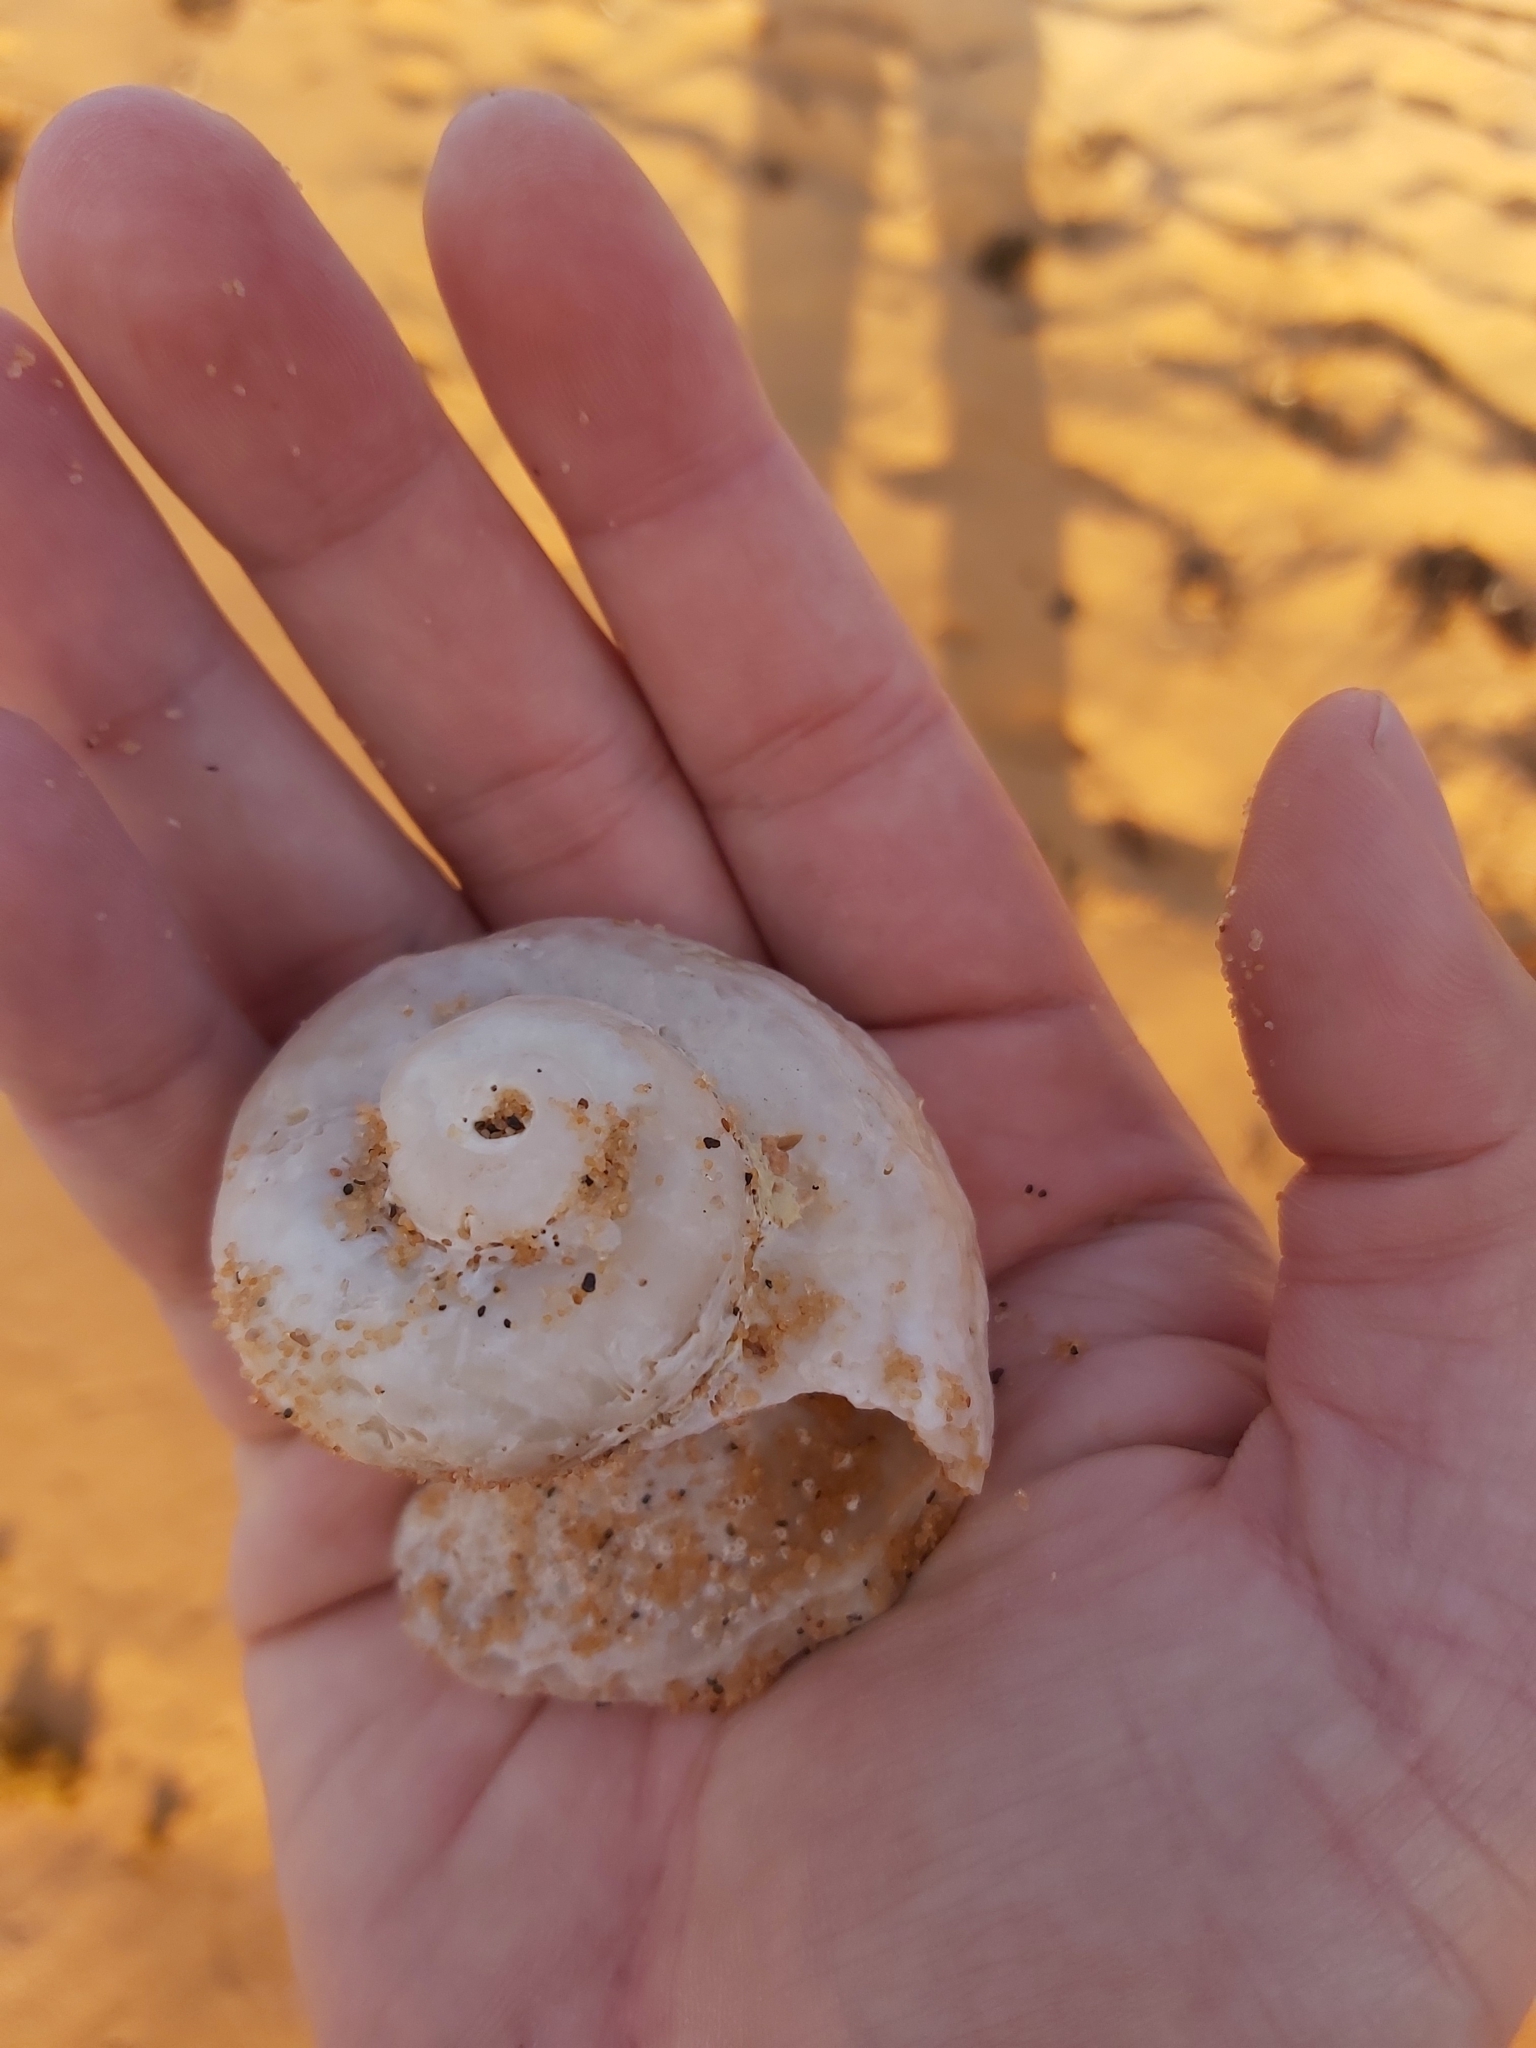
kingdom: Animalia
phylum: Mollusca
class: Gastropoda
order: Trochida
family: Turbinidae
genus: Lunella
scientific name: Lunella torquata
